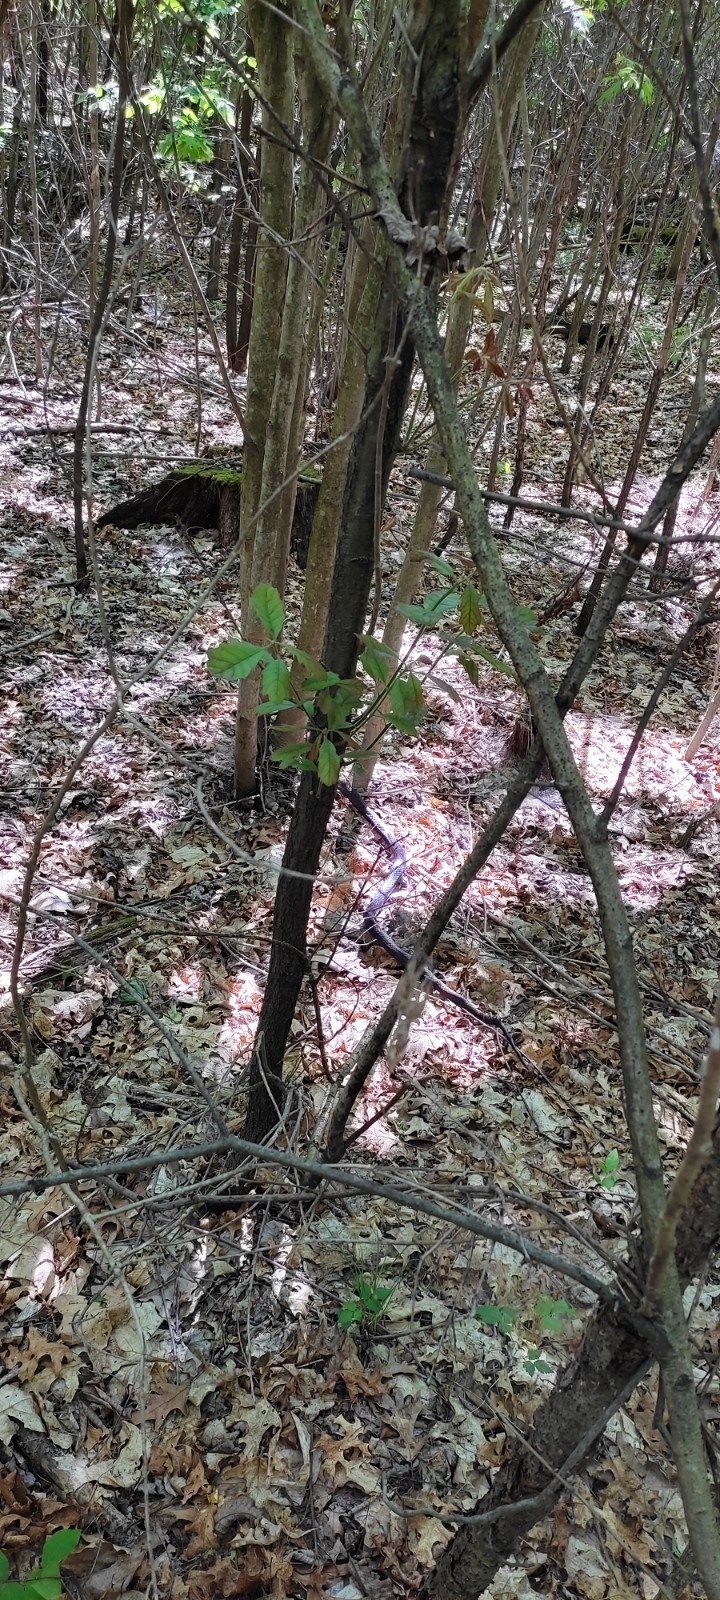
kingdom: Animalia
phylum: Chordata
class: Squamata
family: Colubridae
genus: Pantherophis
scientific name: Pantherophis spiloides
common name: Gray rat snake
